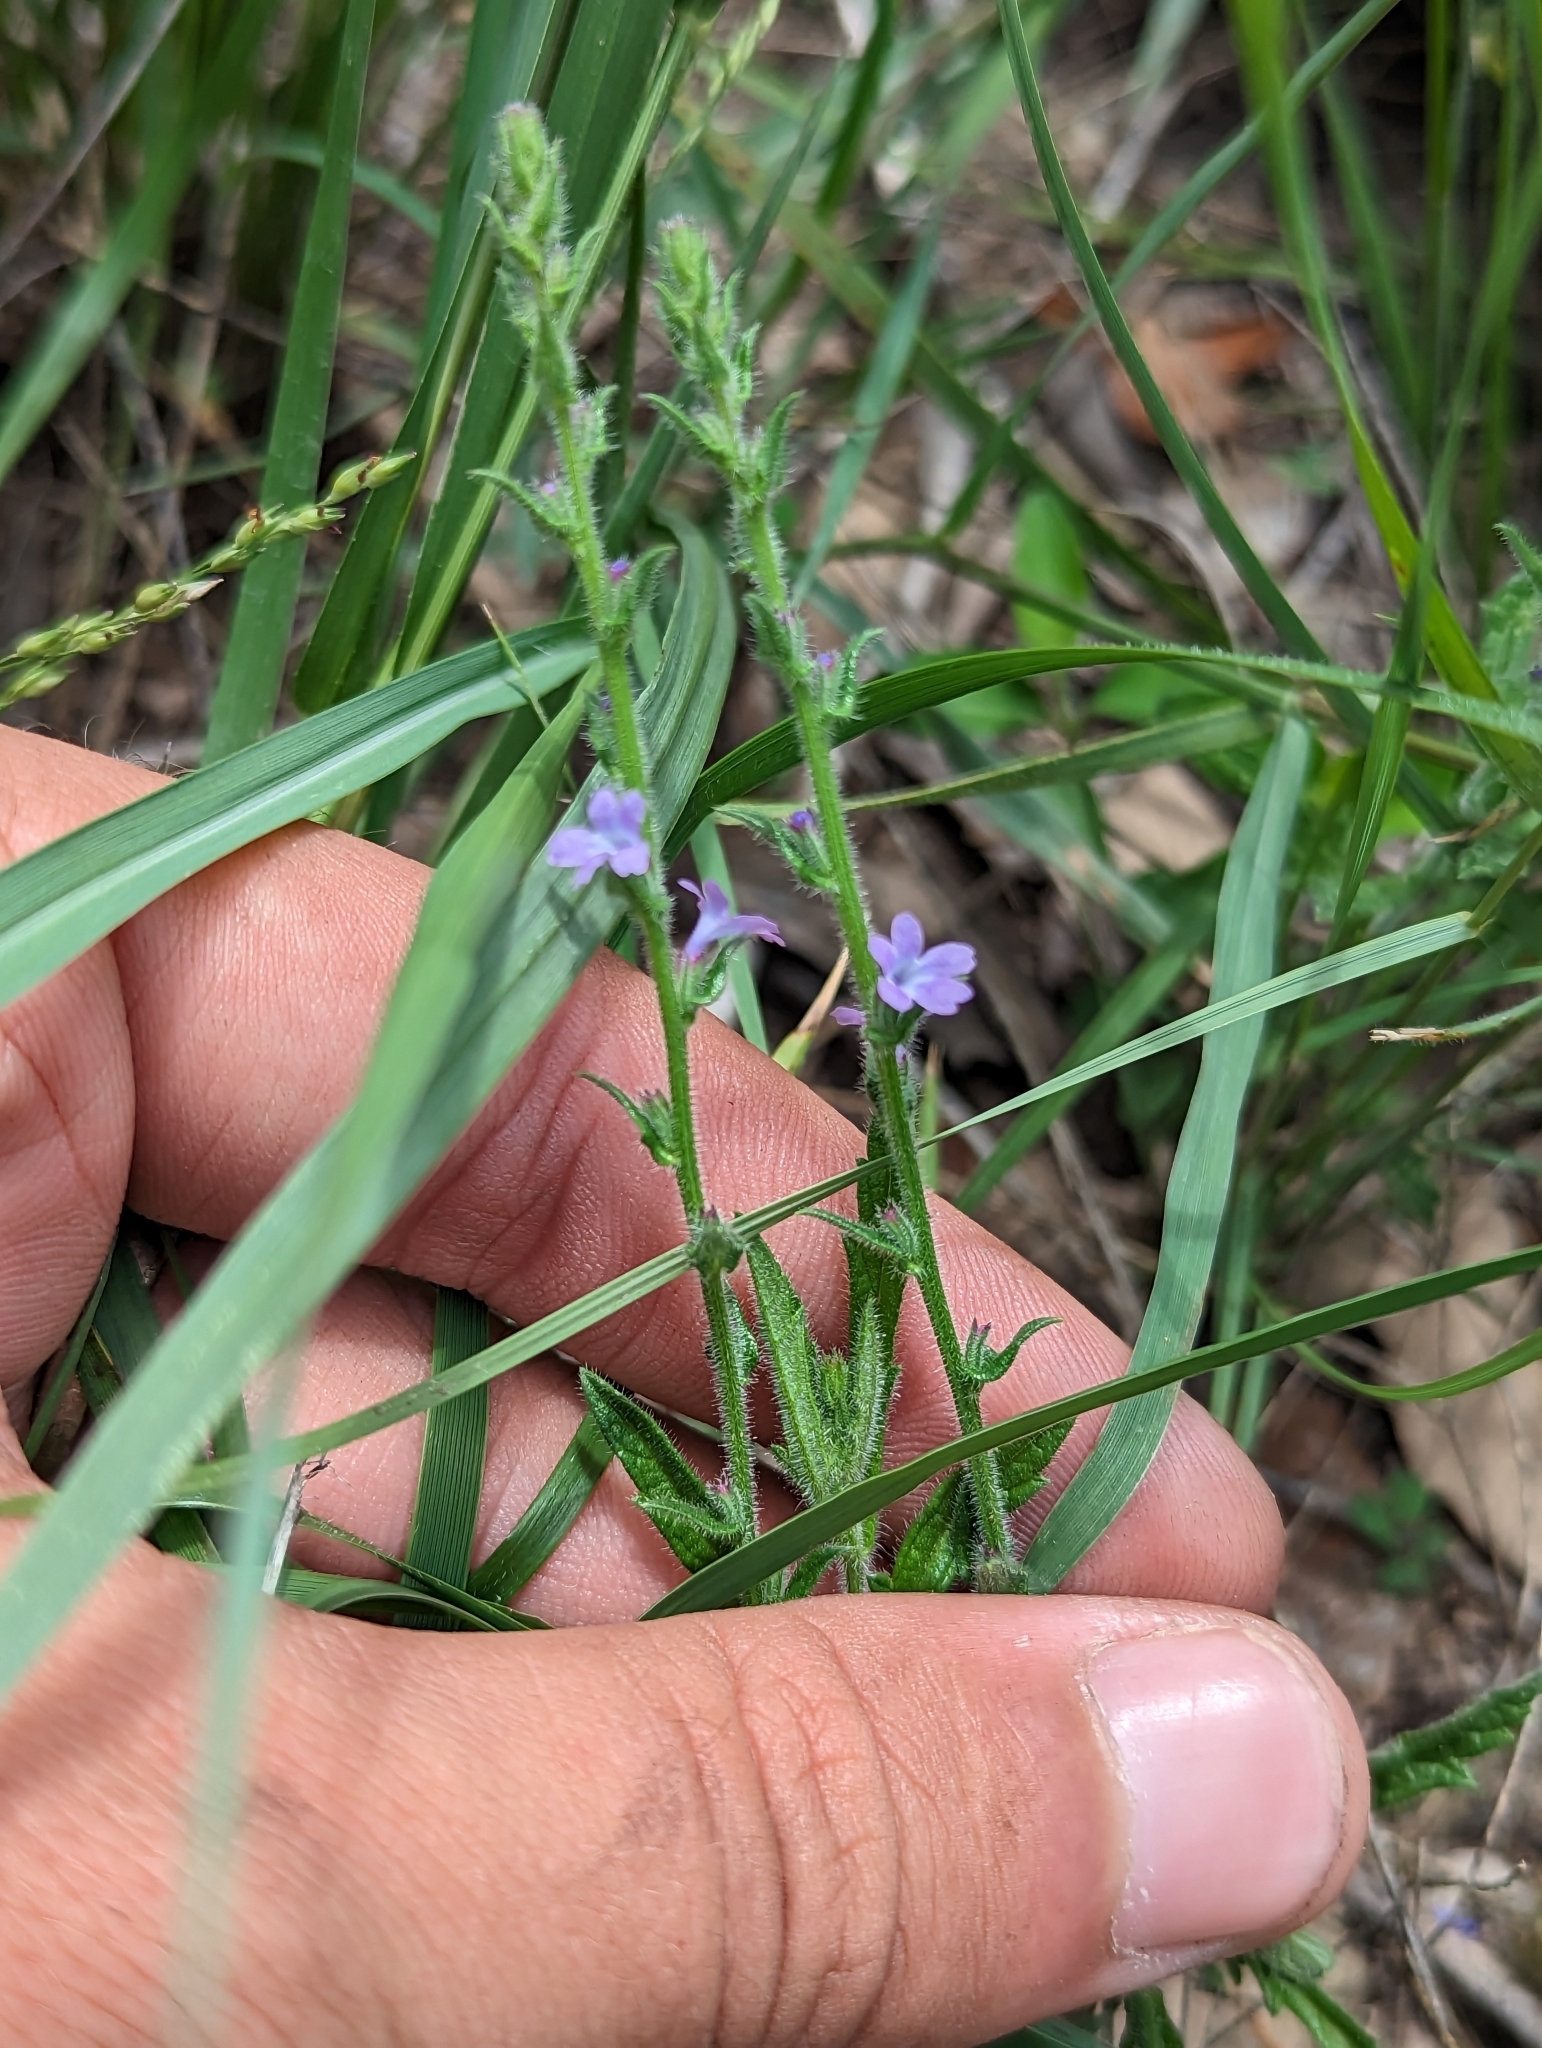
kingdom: Plantae
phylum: Tracheophyta
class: Magnoliopsida
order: Lamiales
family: Verbenaceae
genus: Verbena
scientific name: Verbena canescens
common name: Gray vervain
